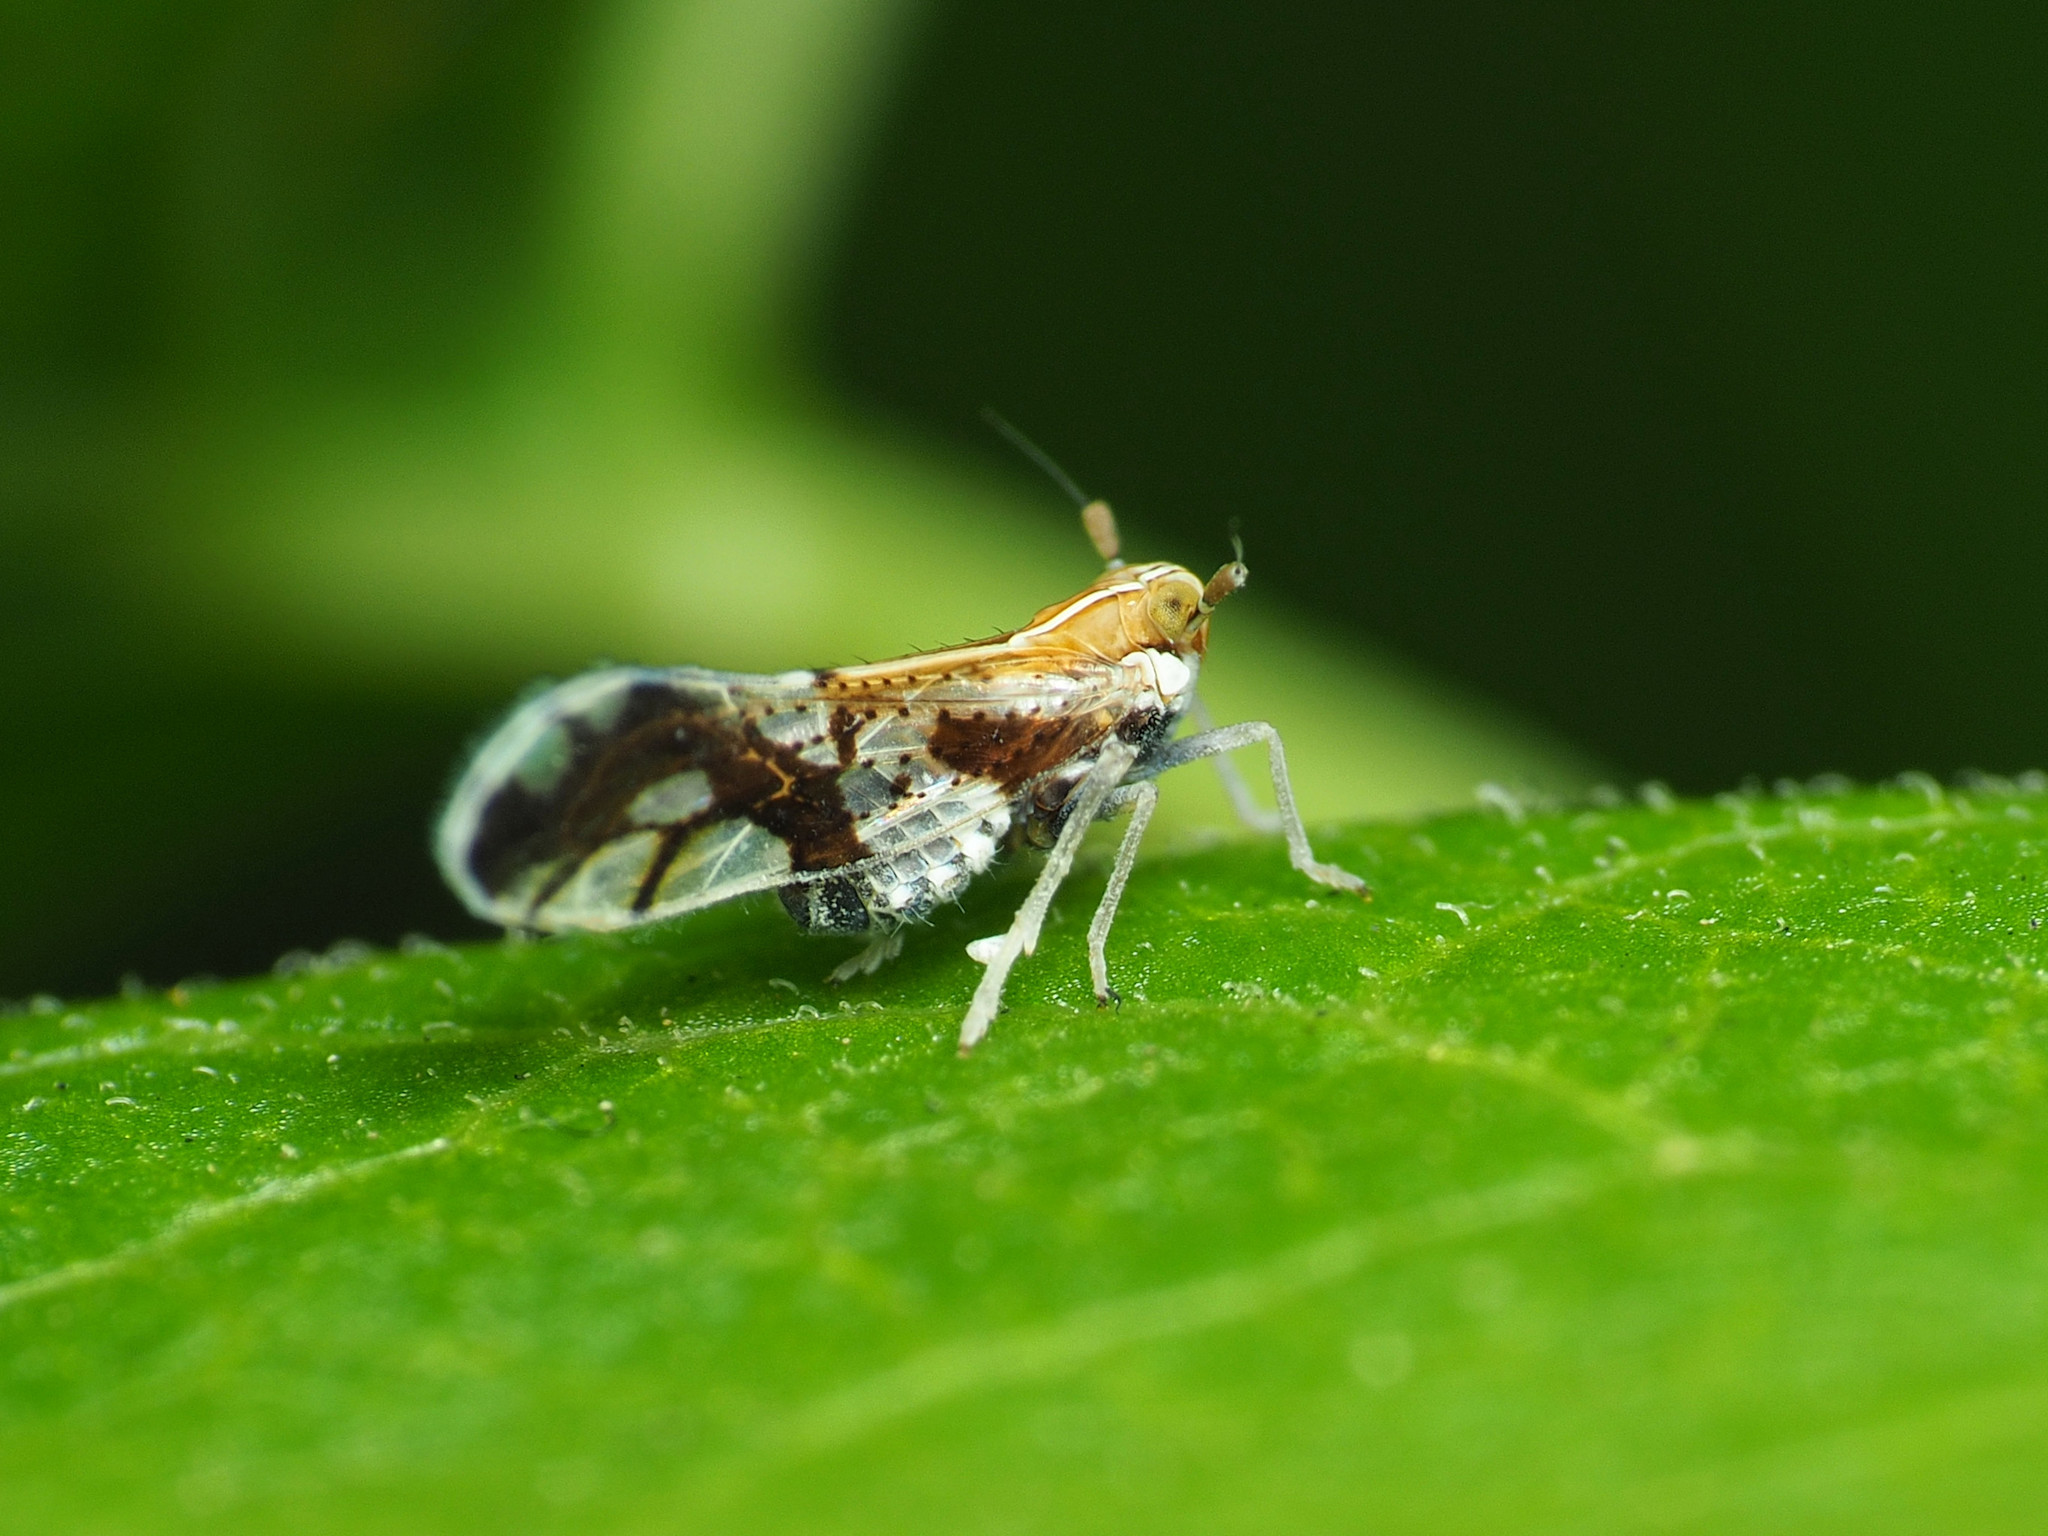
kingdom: Animalia
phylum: Arthropoda
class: Insecta
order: Hemiptera
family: Delphacidae
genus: Liburniella
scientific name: Liburniella ornata
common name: Ornate planthopper
